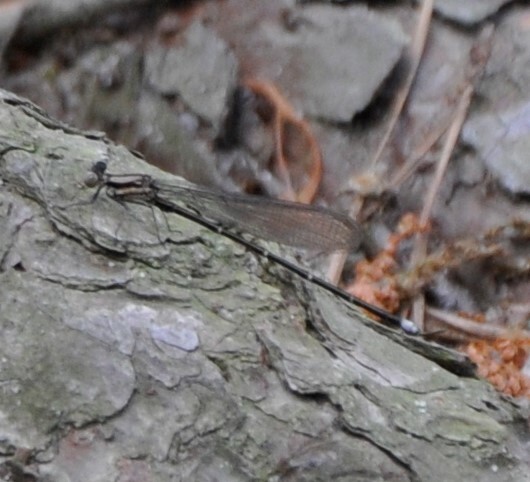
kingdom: Animalia
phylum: Arthropoda
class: Insecta
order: Odonata
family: Coenagrionidae
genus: Argia
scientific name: Argia tibialis
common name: Blue-tipped dancer
